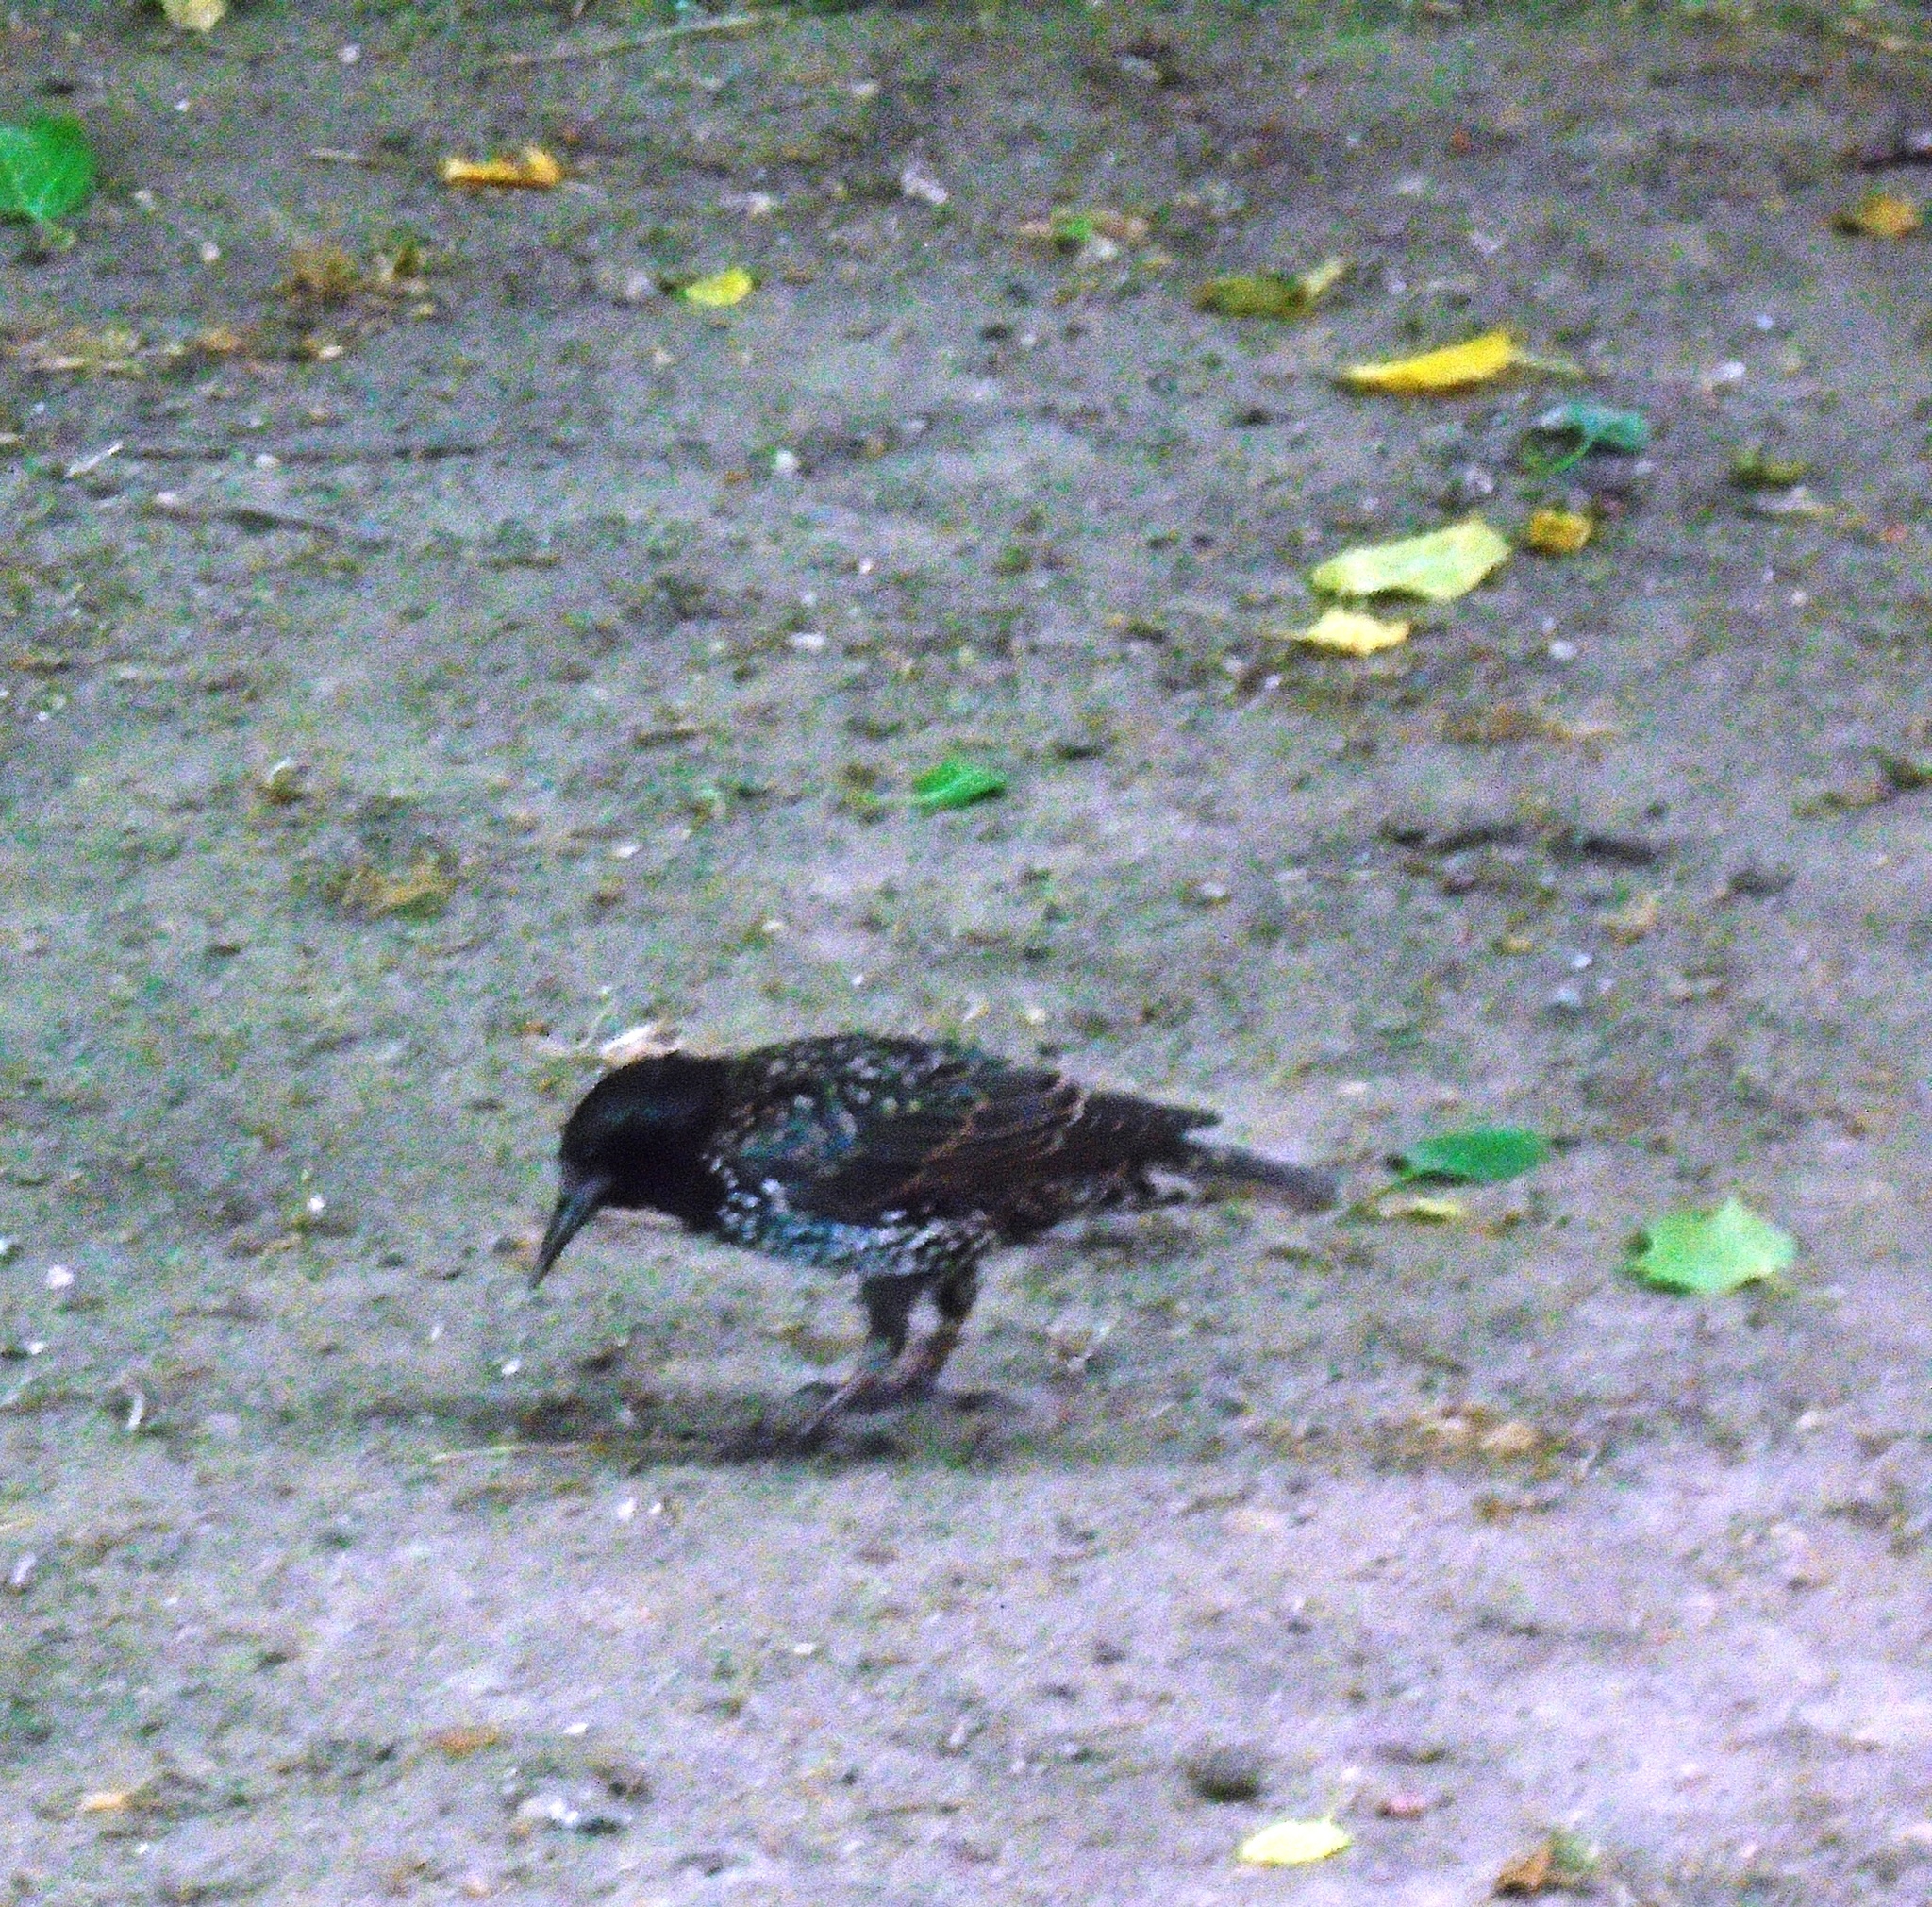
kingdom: Animalia
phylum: Chordata
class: Aves
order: Passeriformes
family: Sturnidae
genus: Sturnus
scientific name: Sturnus vulgaris
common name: Common starling
